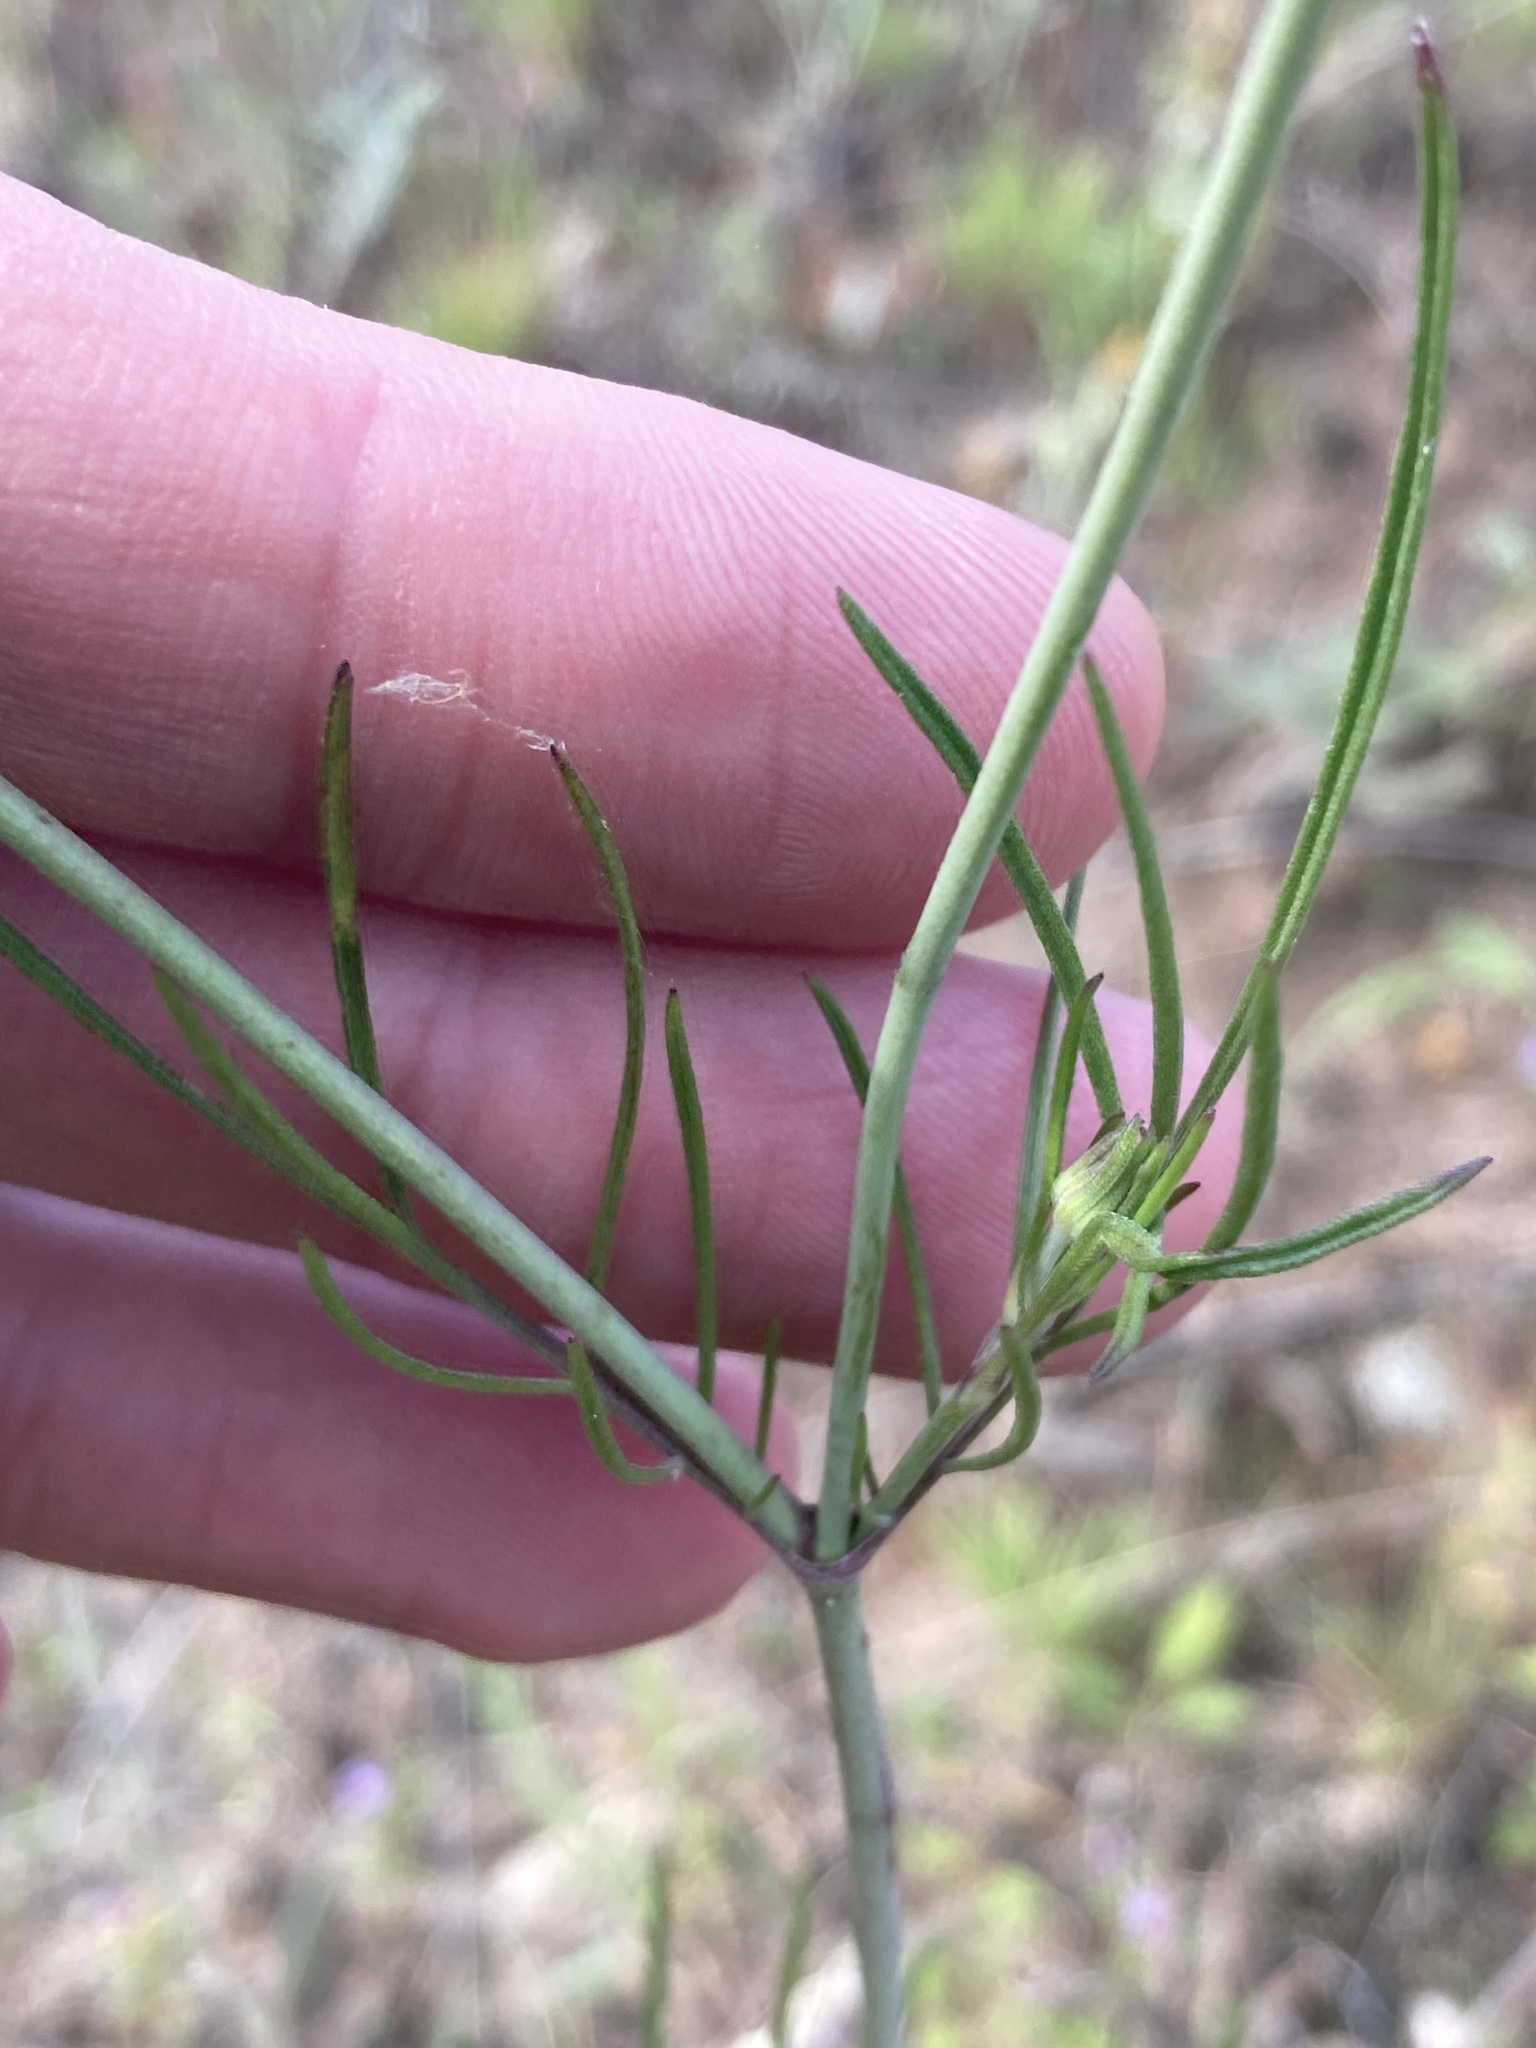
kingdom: Plantae
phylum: Tracheophyta
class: Magnoliopsida
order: Dipsacales
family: Caprifoliaceae
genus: Scabiosa
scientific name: Scabiosa ochroleuca
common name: Cream pincushions
